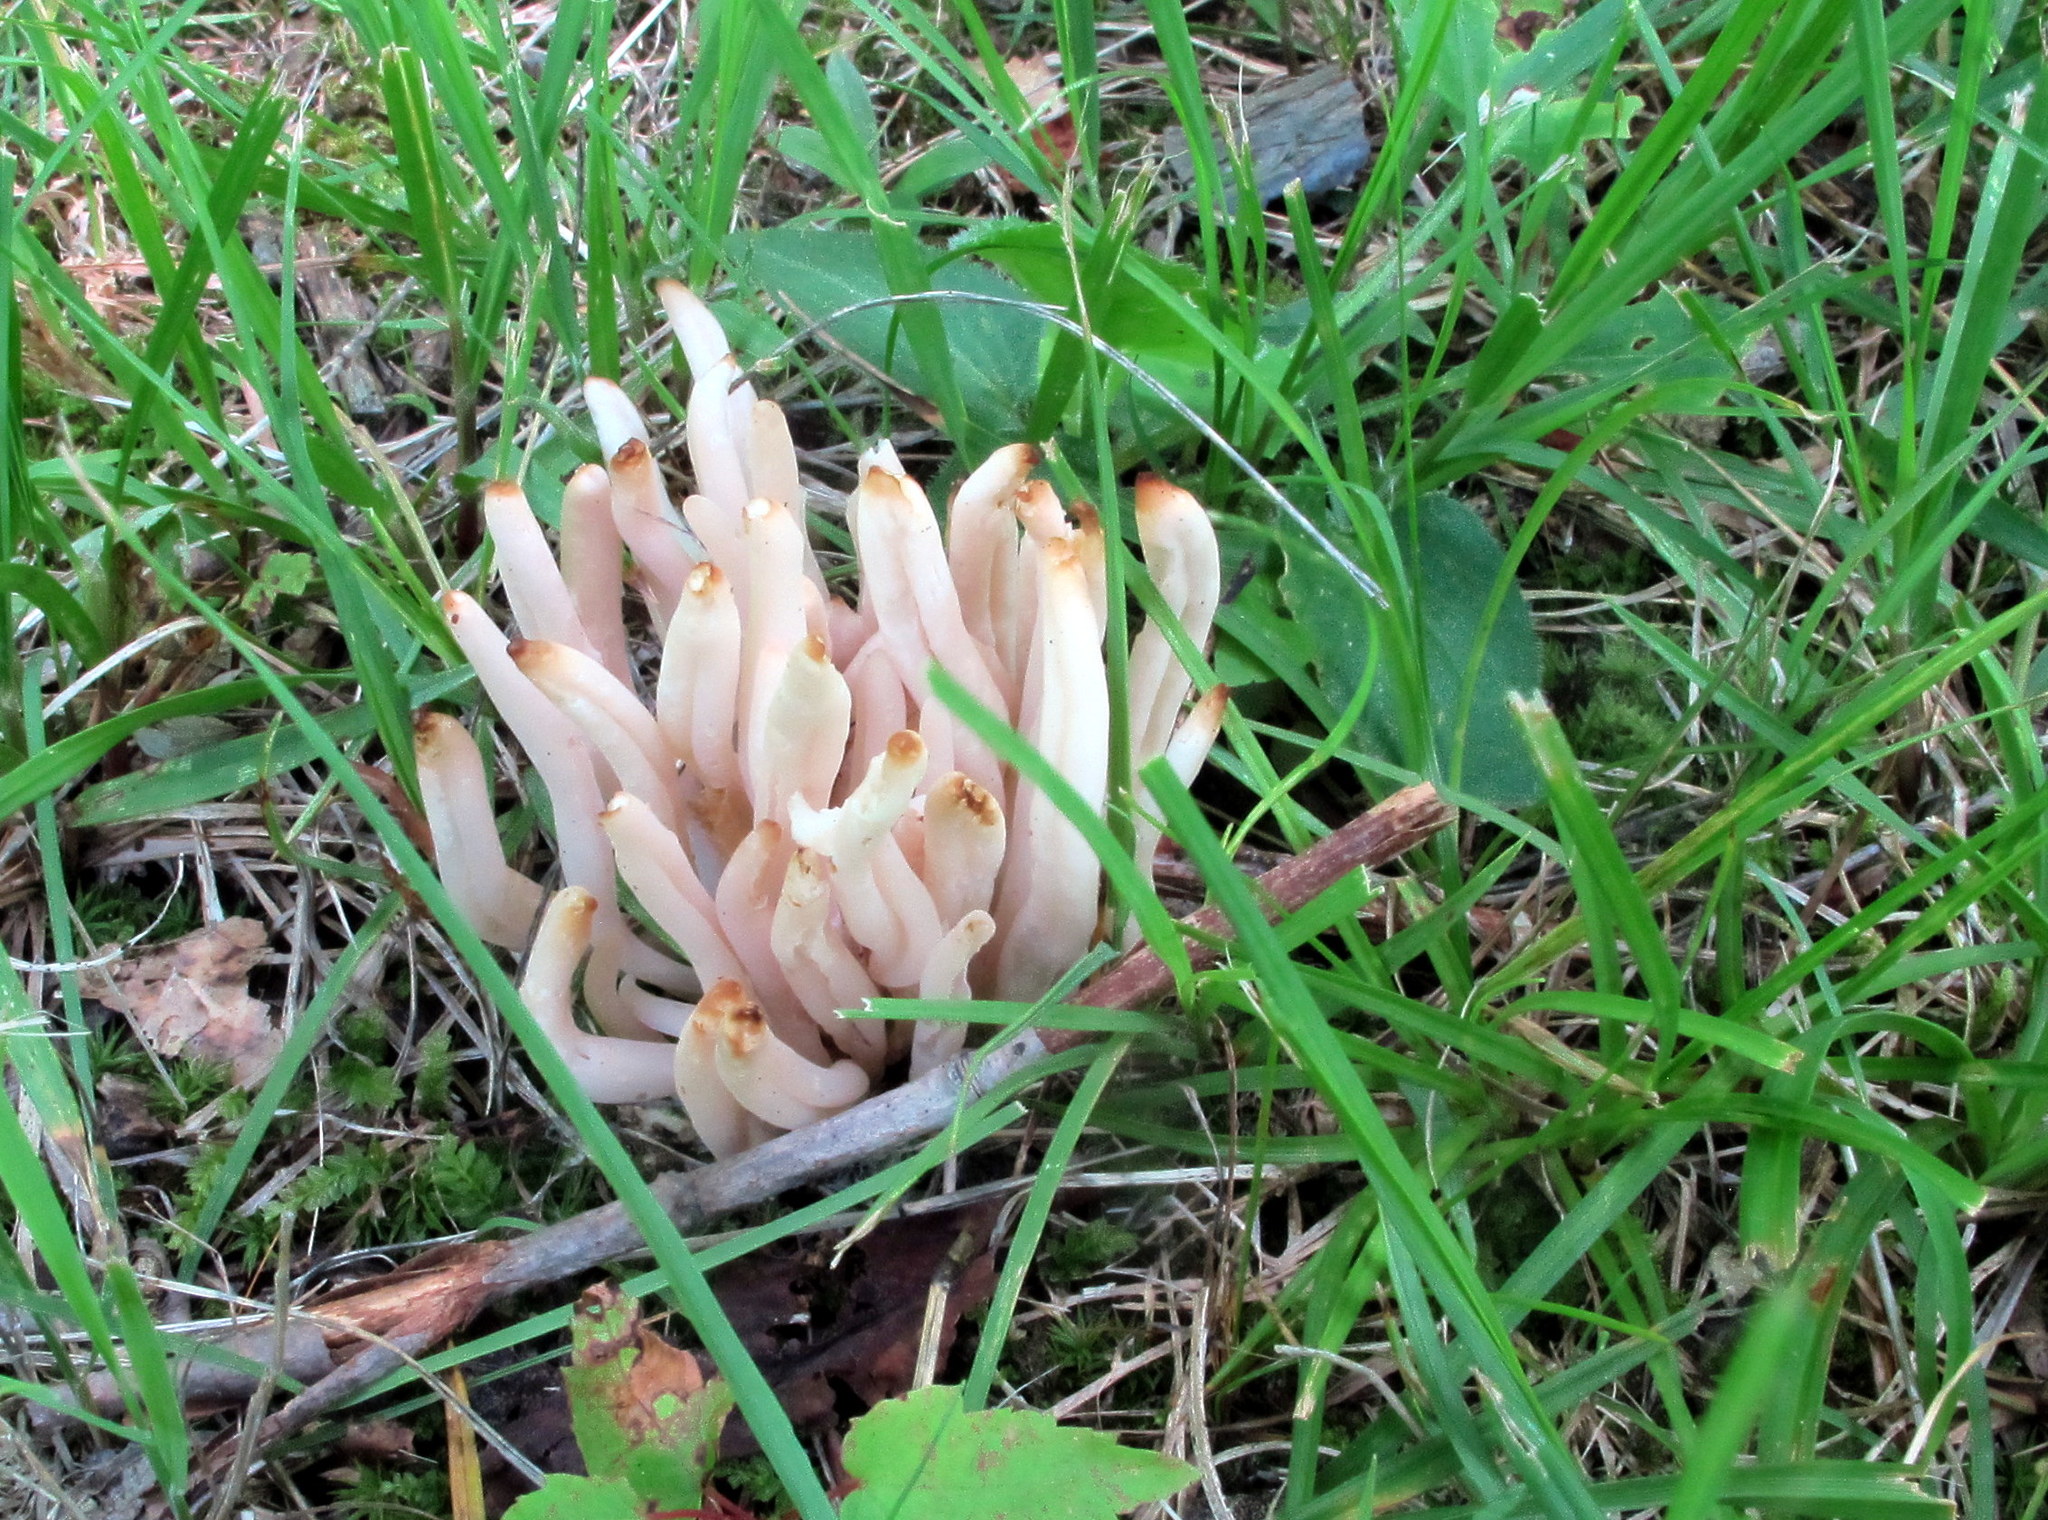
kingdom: Fungi
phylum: Basidiomycota
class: Agaricomycetes
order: Agaricales
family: Clavariaceae
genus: Clavaria
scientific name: Clavaria fragilis
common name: White spindles
